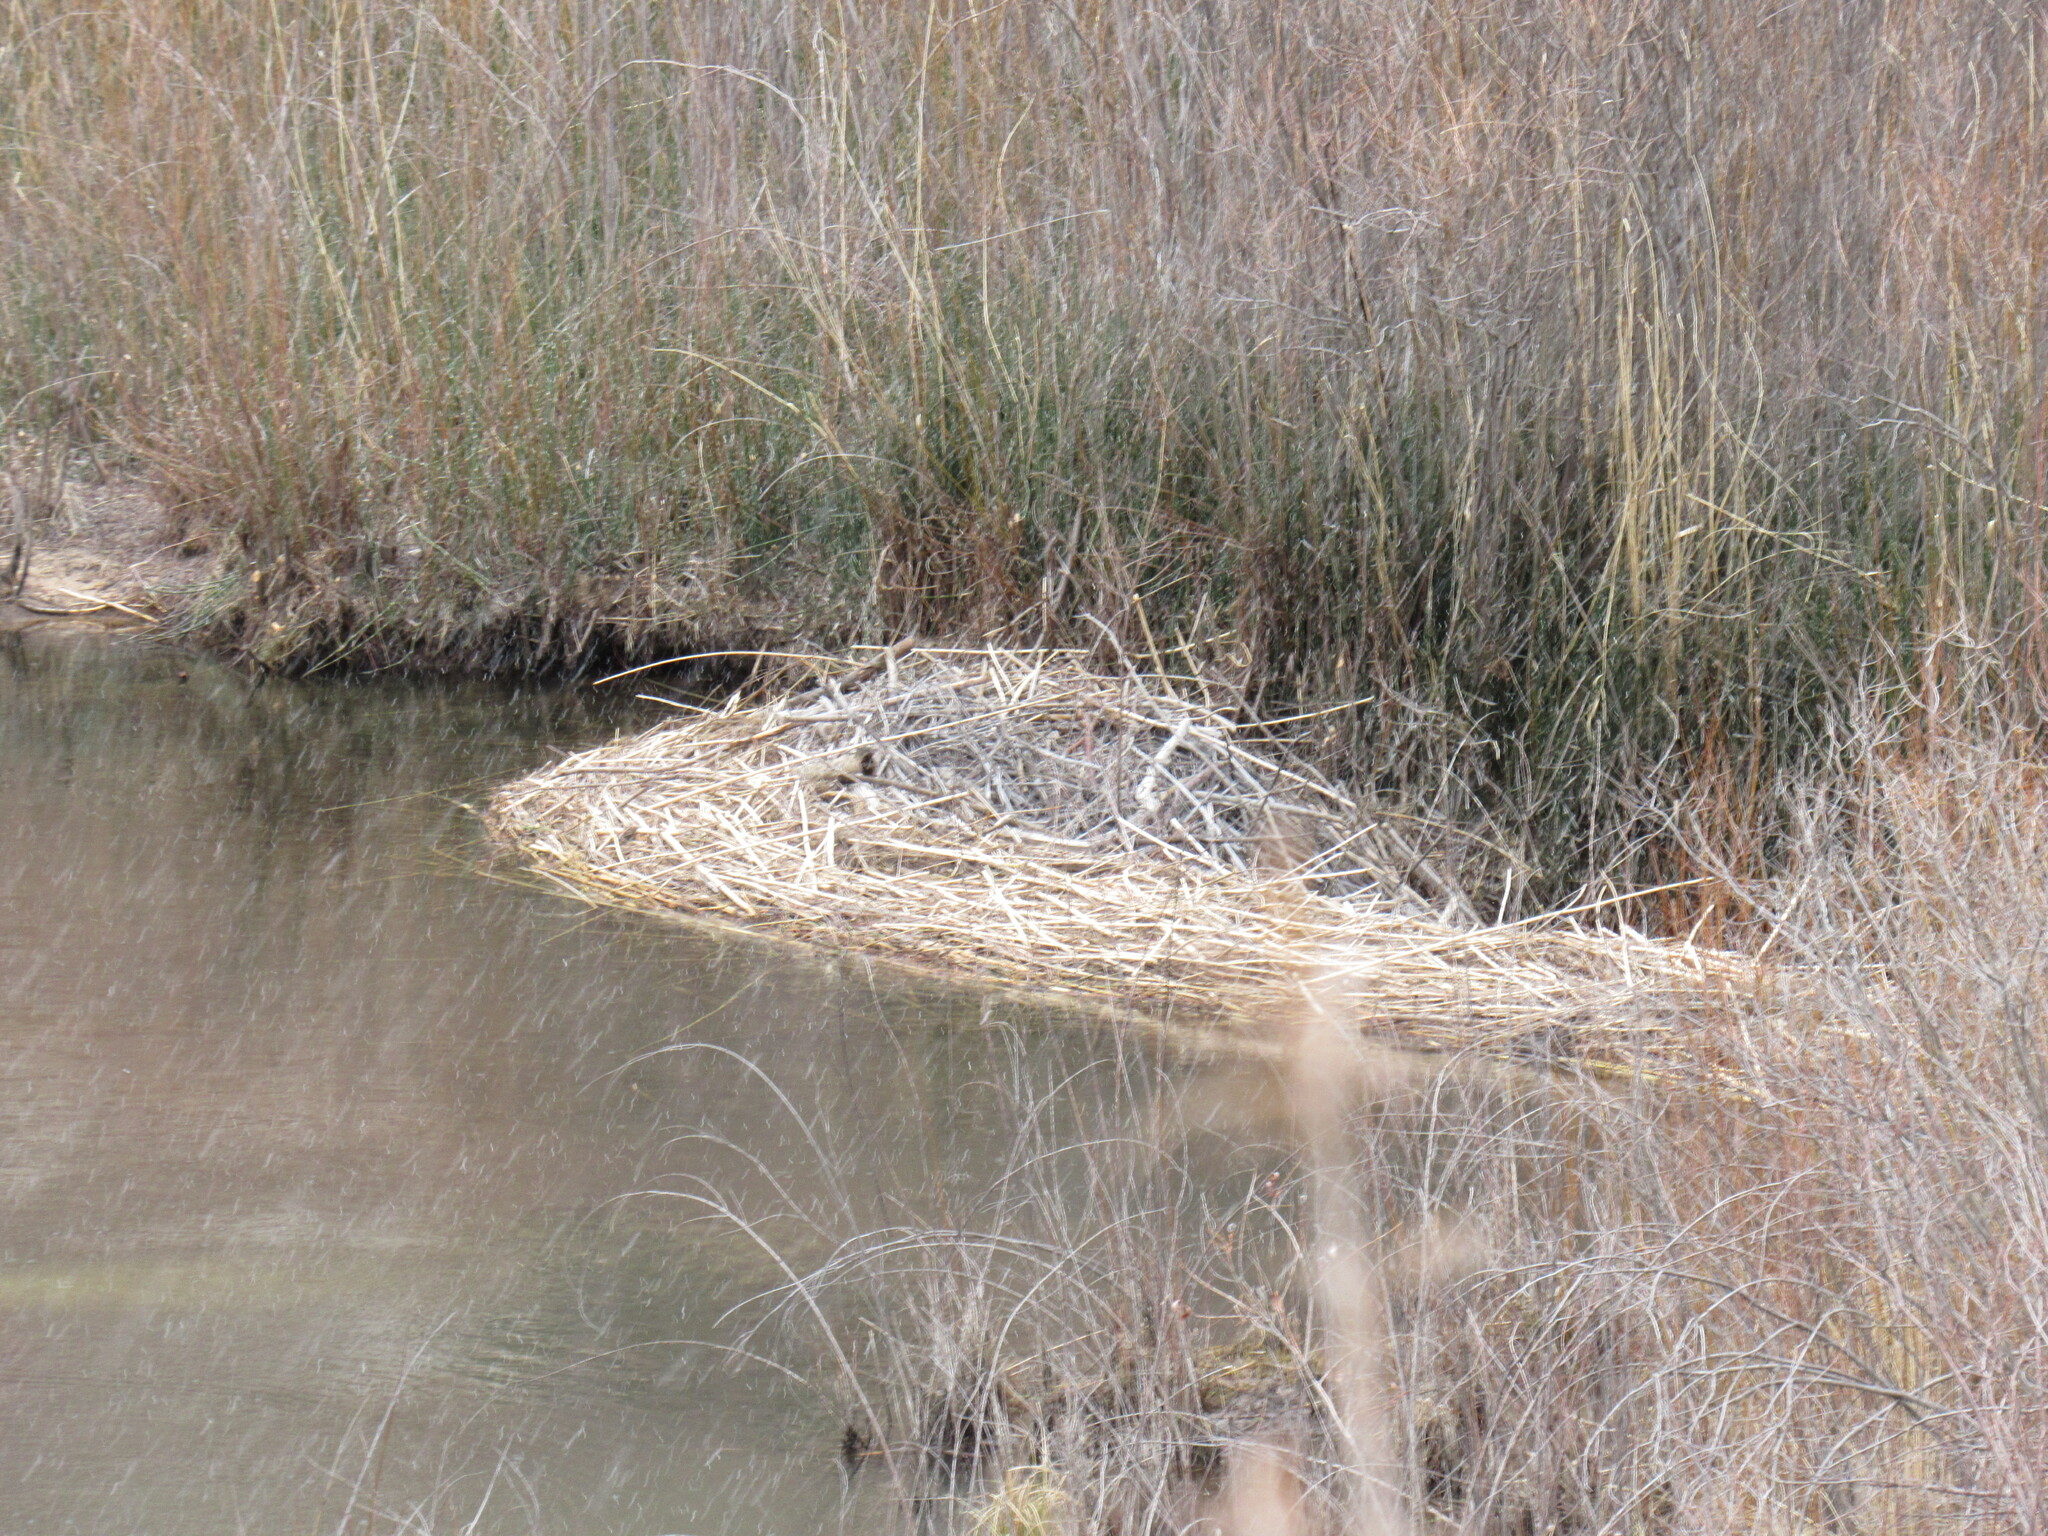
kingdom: Animalia
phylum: Chordata
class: Mammalia
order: Rodentia
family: Castoridae
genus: Castor
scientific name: Castor canadensis
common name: American beaver
